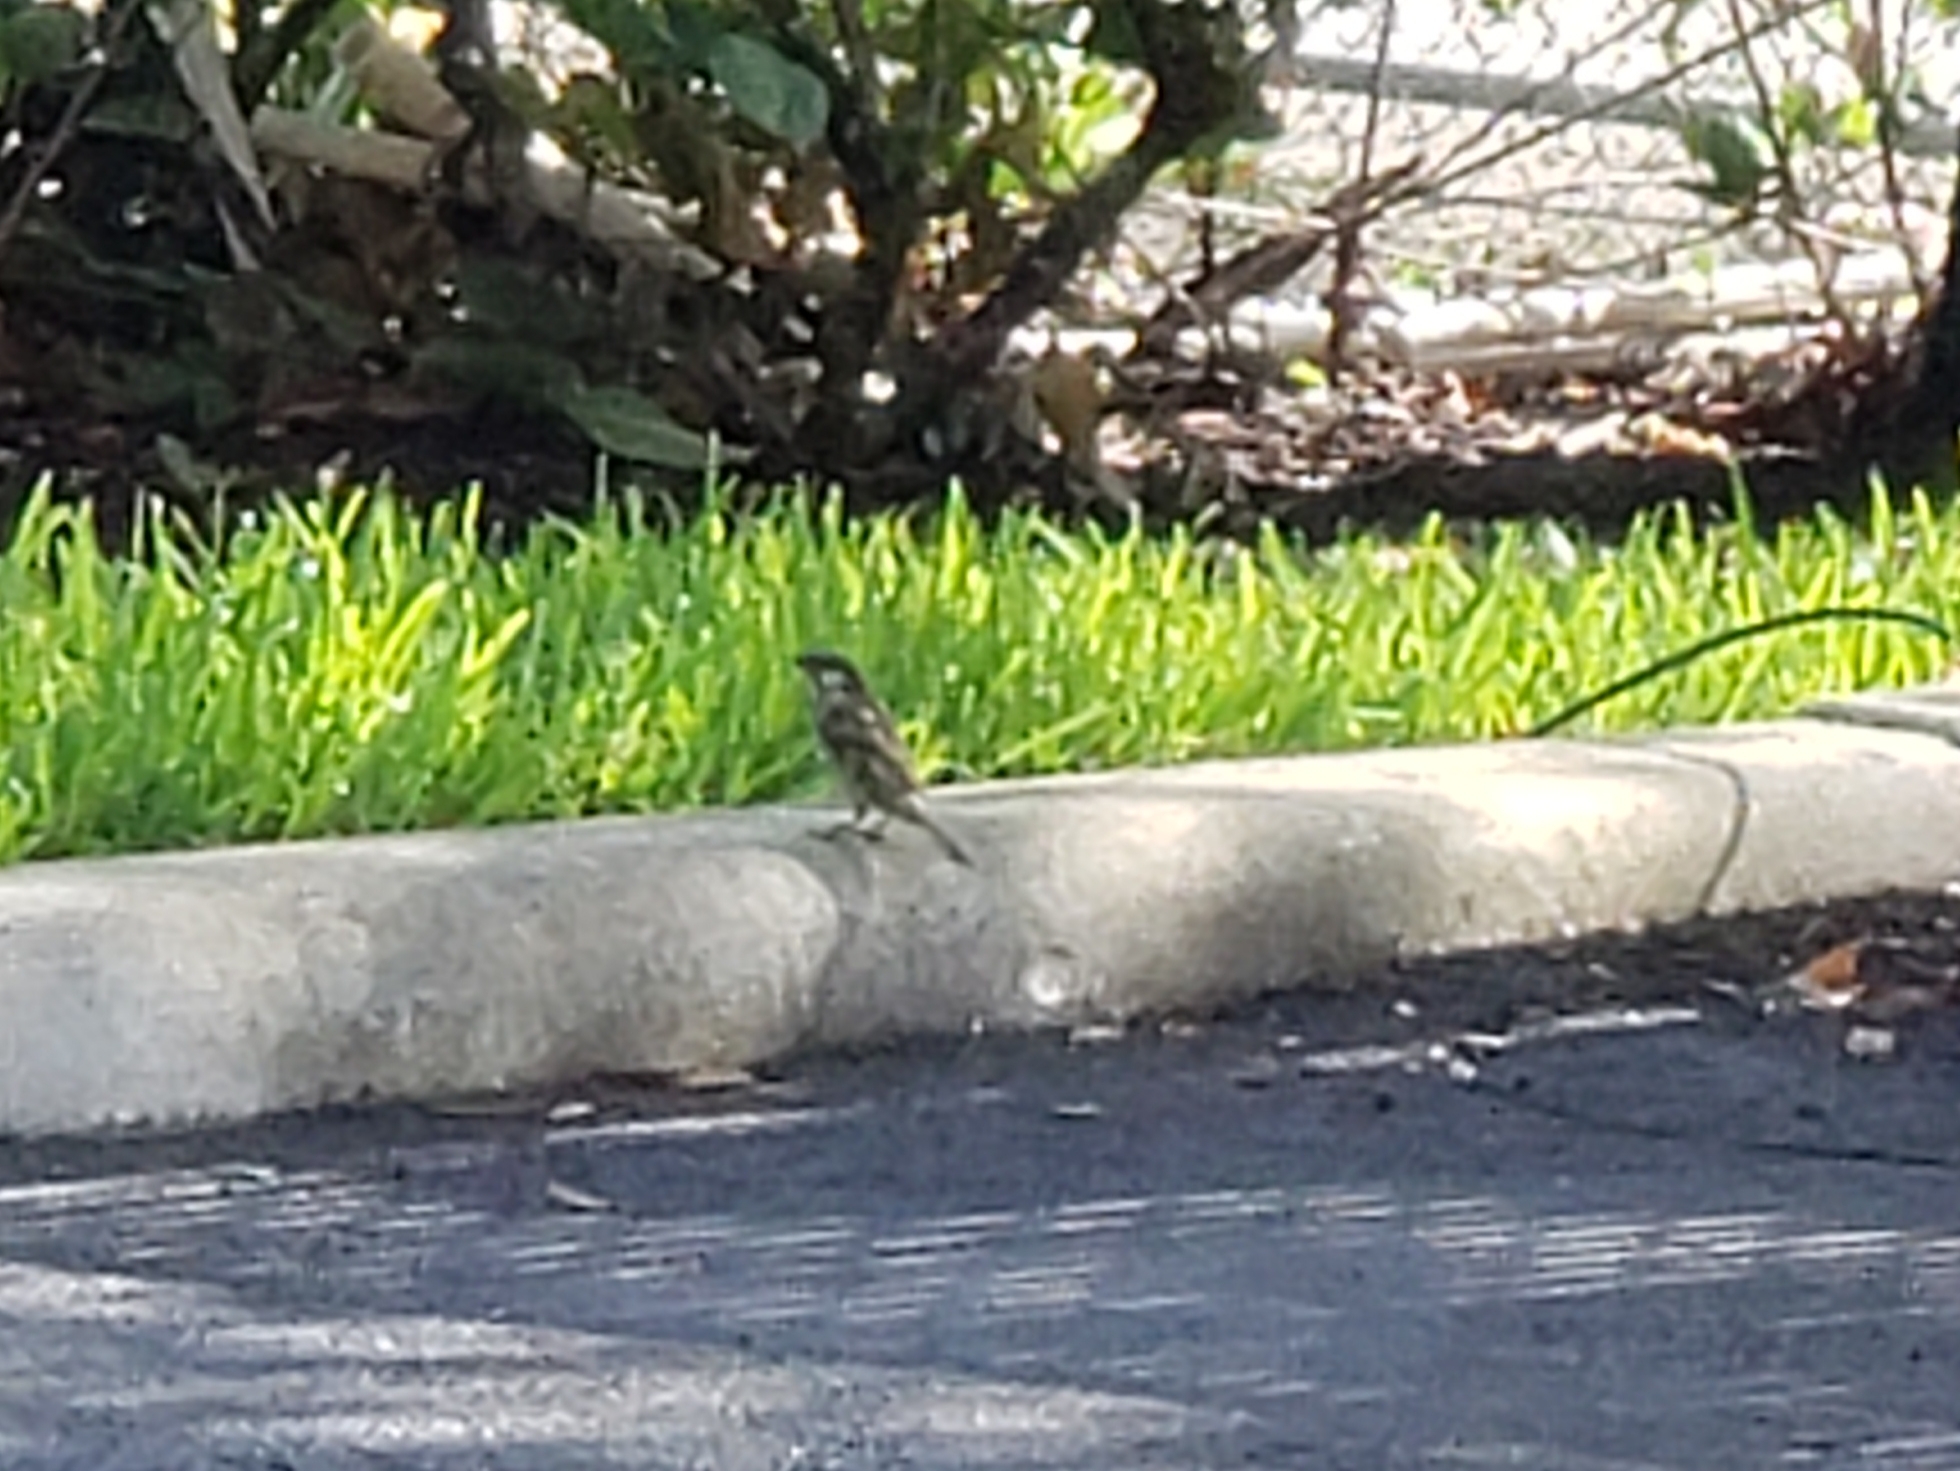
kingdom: Animalia
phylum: Chordata
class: Aves
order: Passeriformes
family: Passeridae
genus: Passer
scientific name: Passer domesticus
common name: House sparrow
